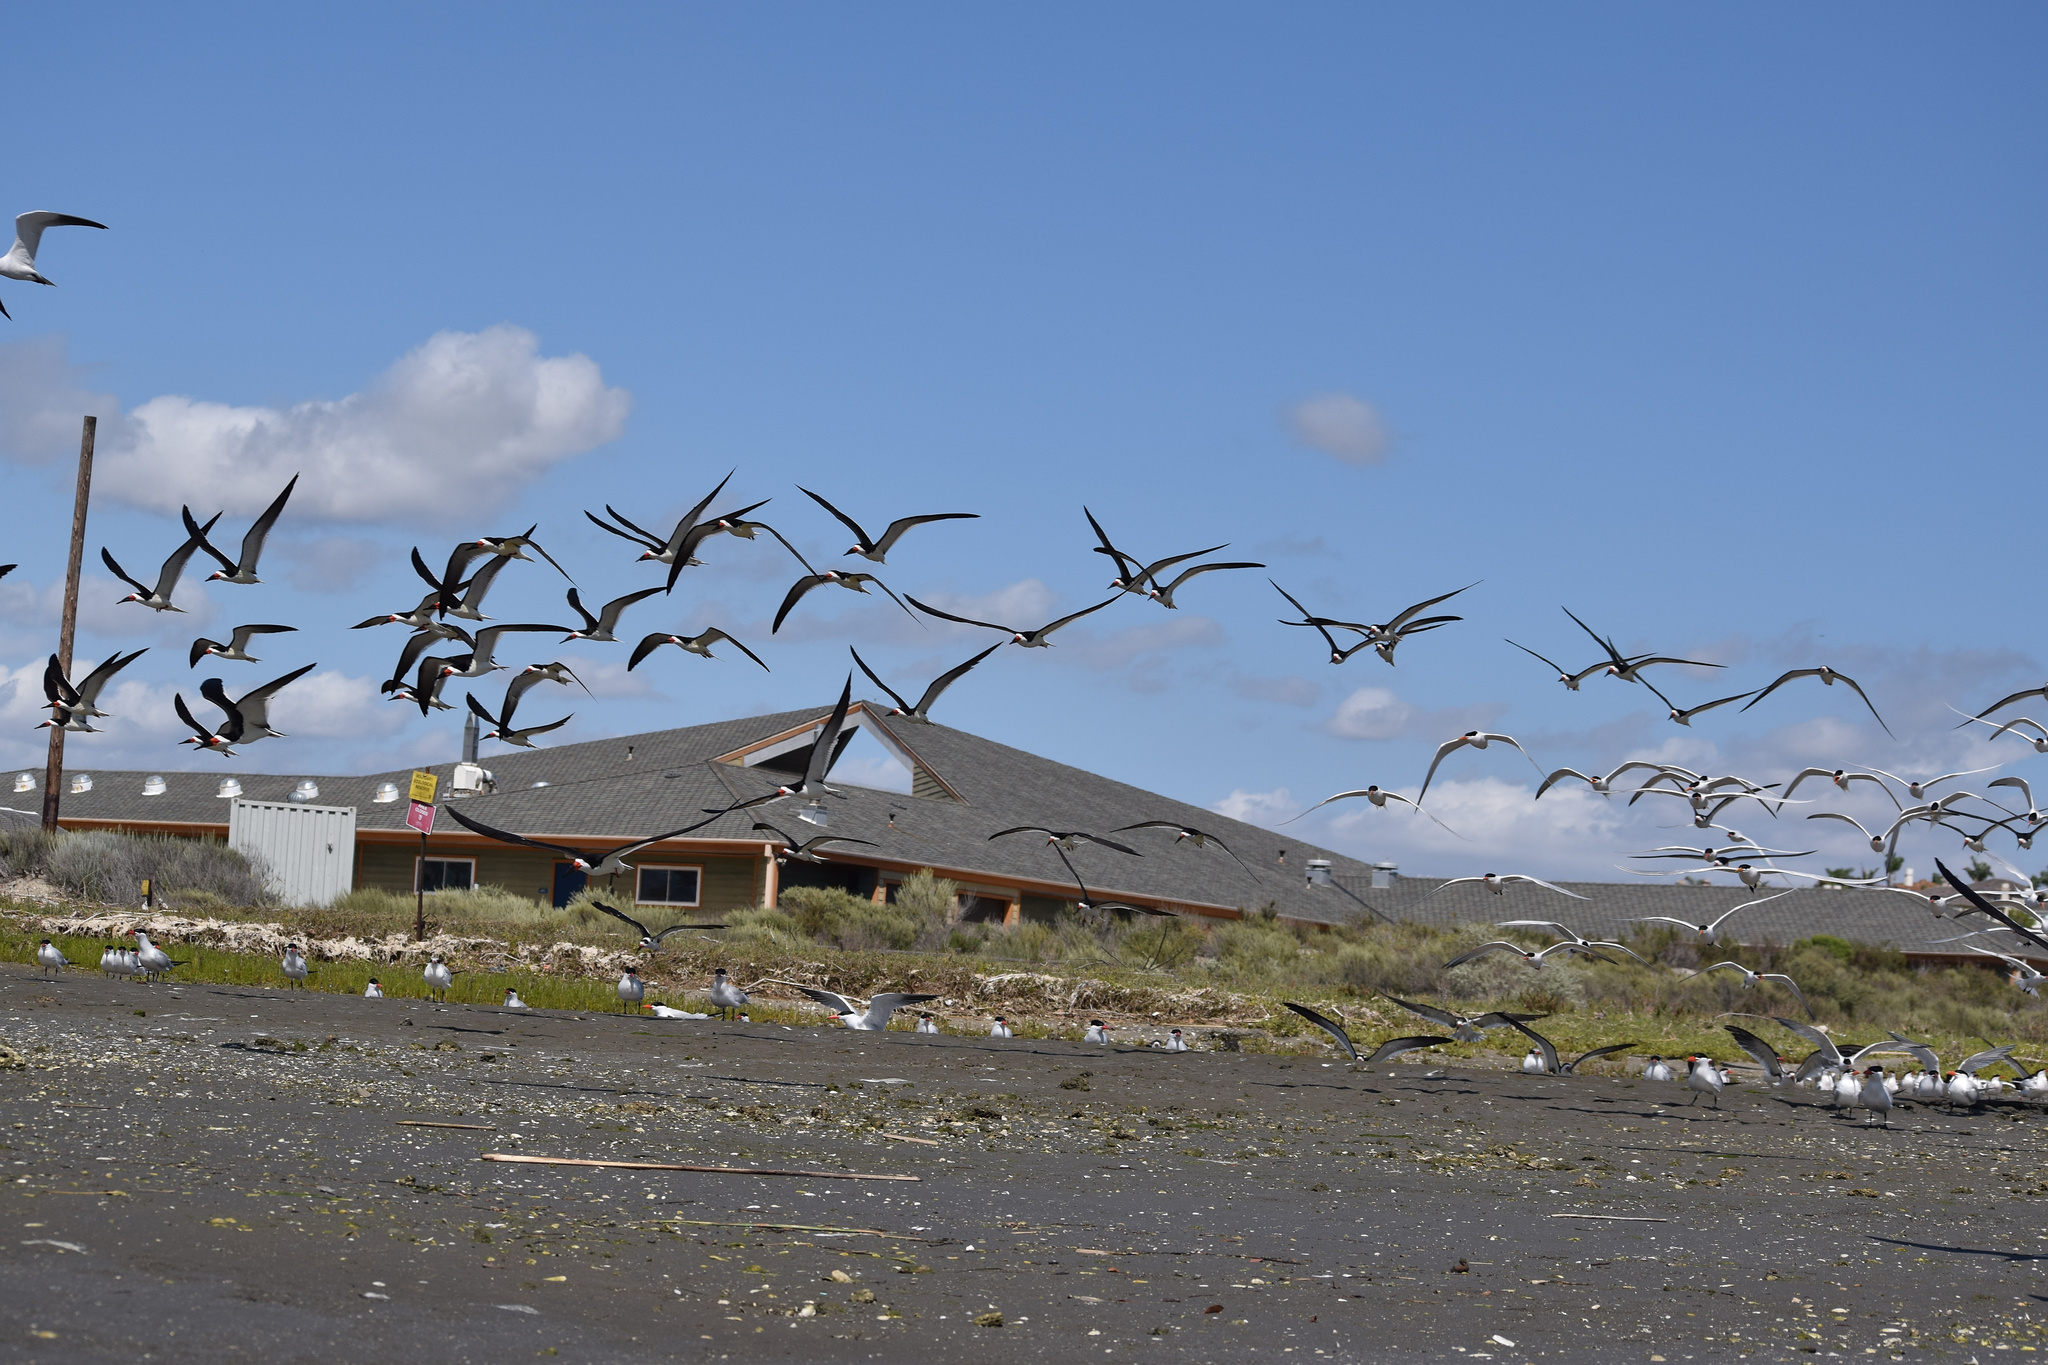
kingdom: Animalia
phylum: Chordata
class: Aves
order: Charadriiformes
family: Laridae
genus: Rynchops
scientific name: Rynchops niger
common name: Black skimmer
